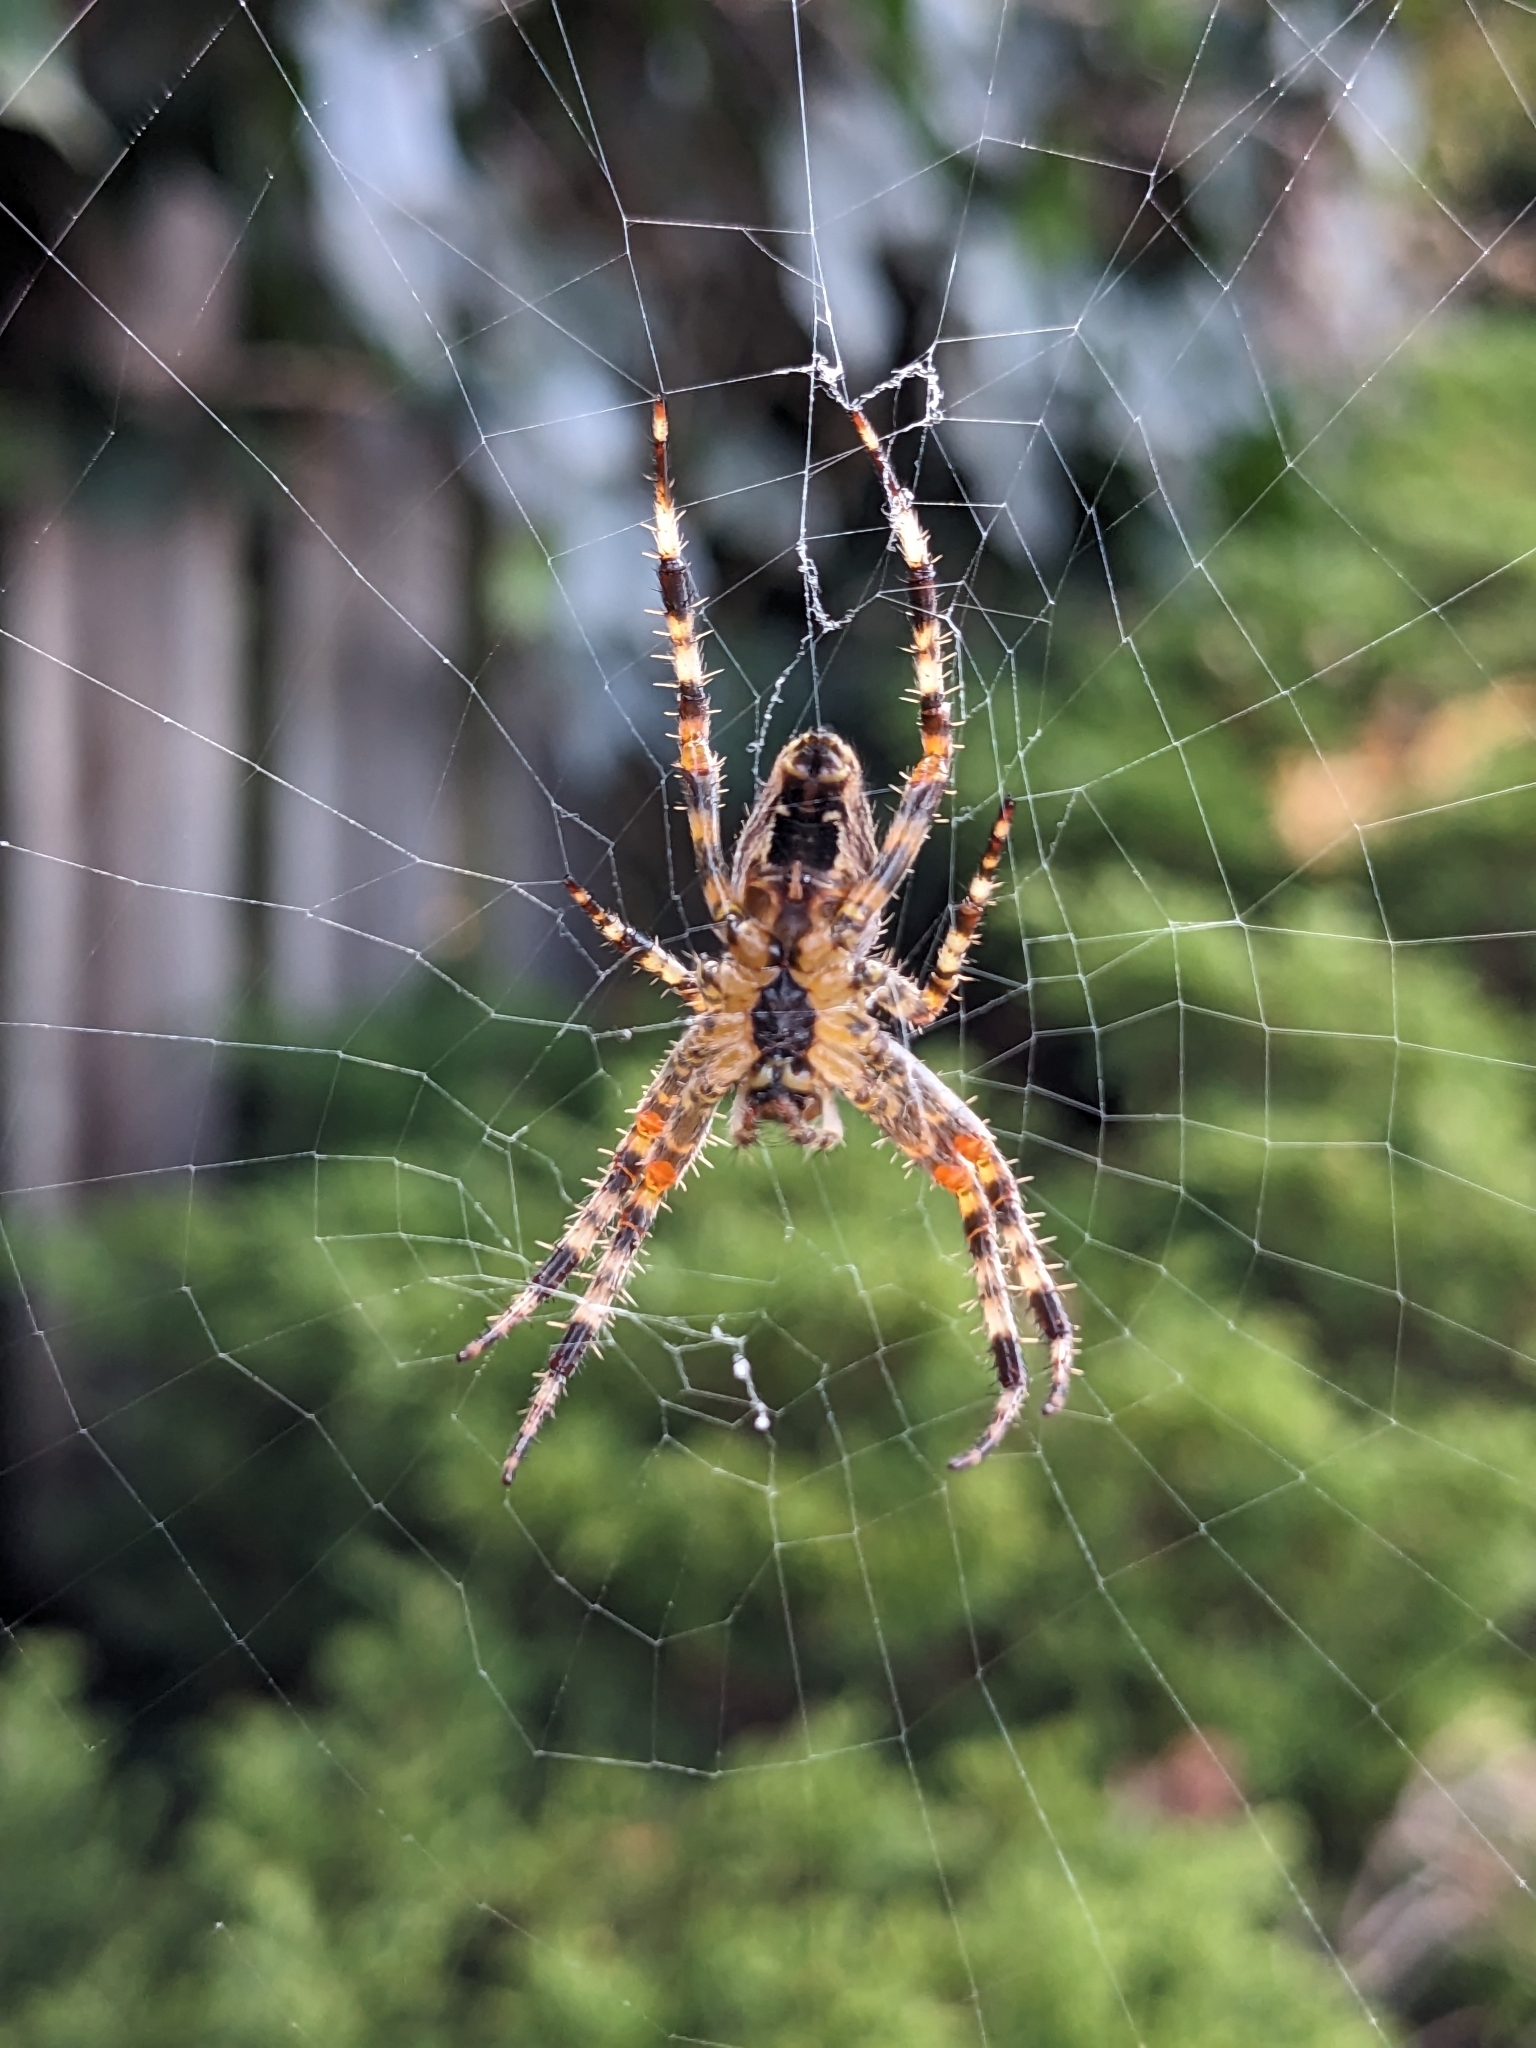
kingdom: Animalia
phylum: Arthropoda
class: Arachnida
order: Araneae
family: Araneidae
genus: Araneus
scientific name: Araneus diadematus
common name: Cross orbweaver
